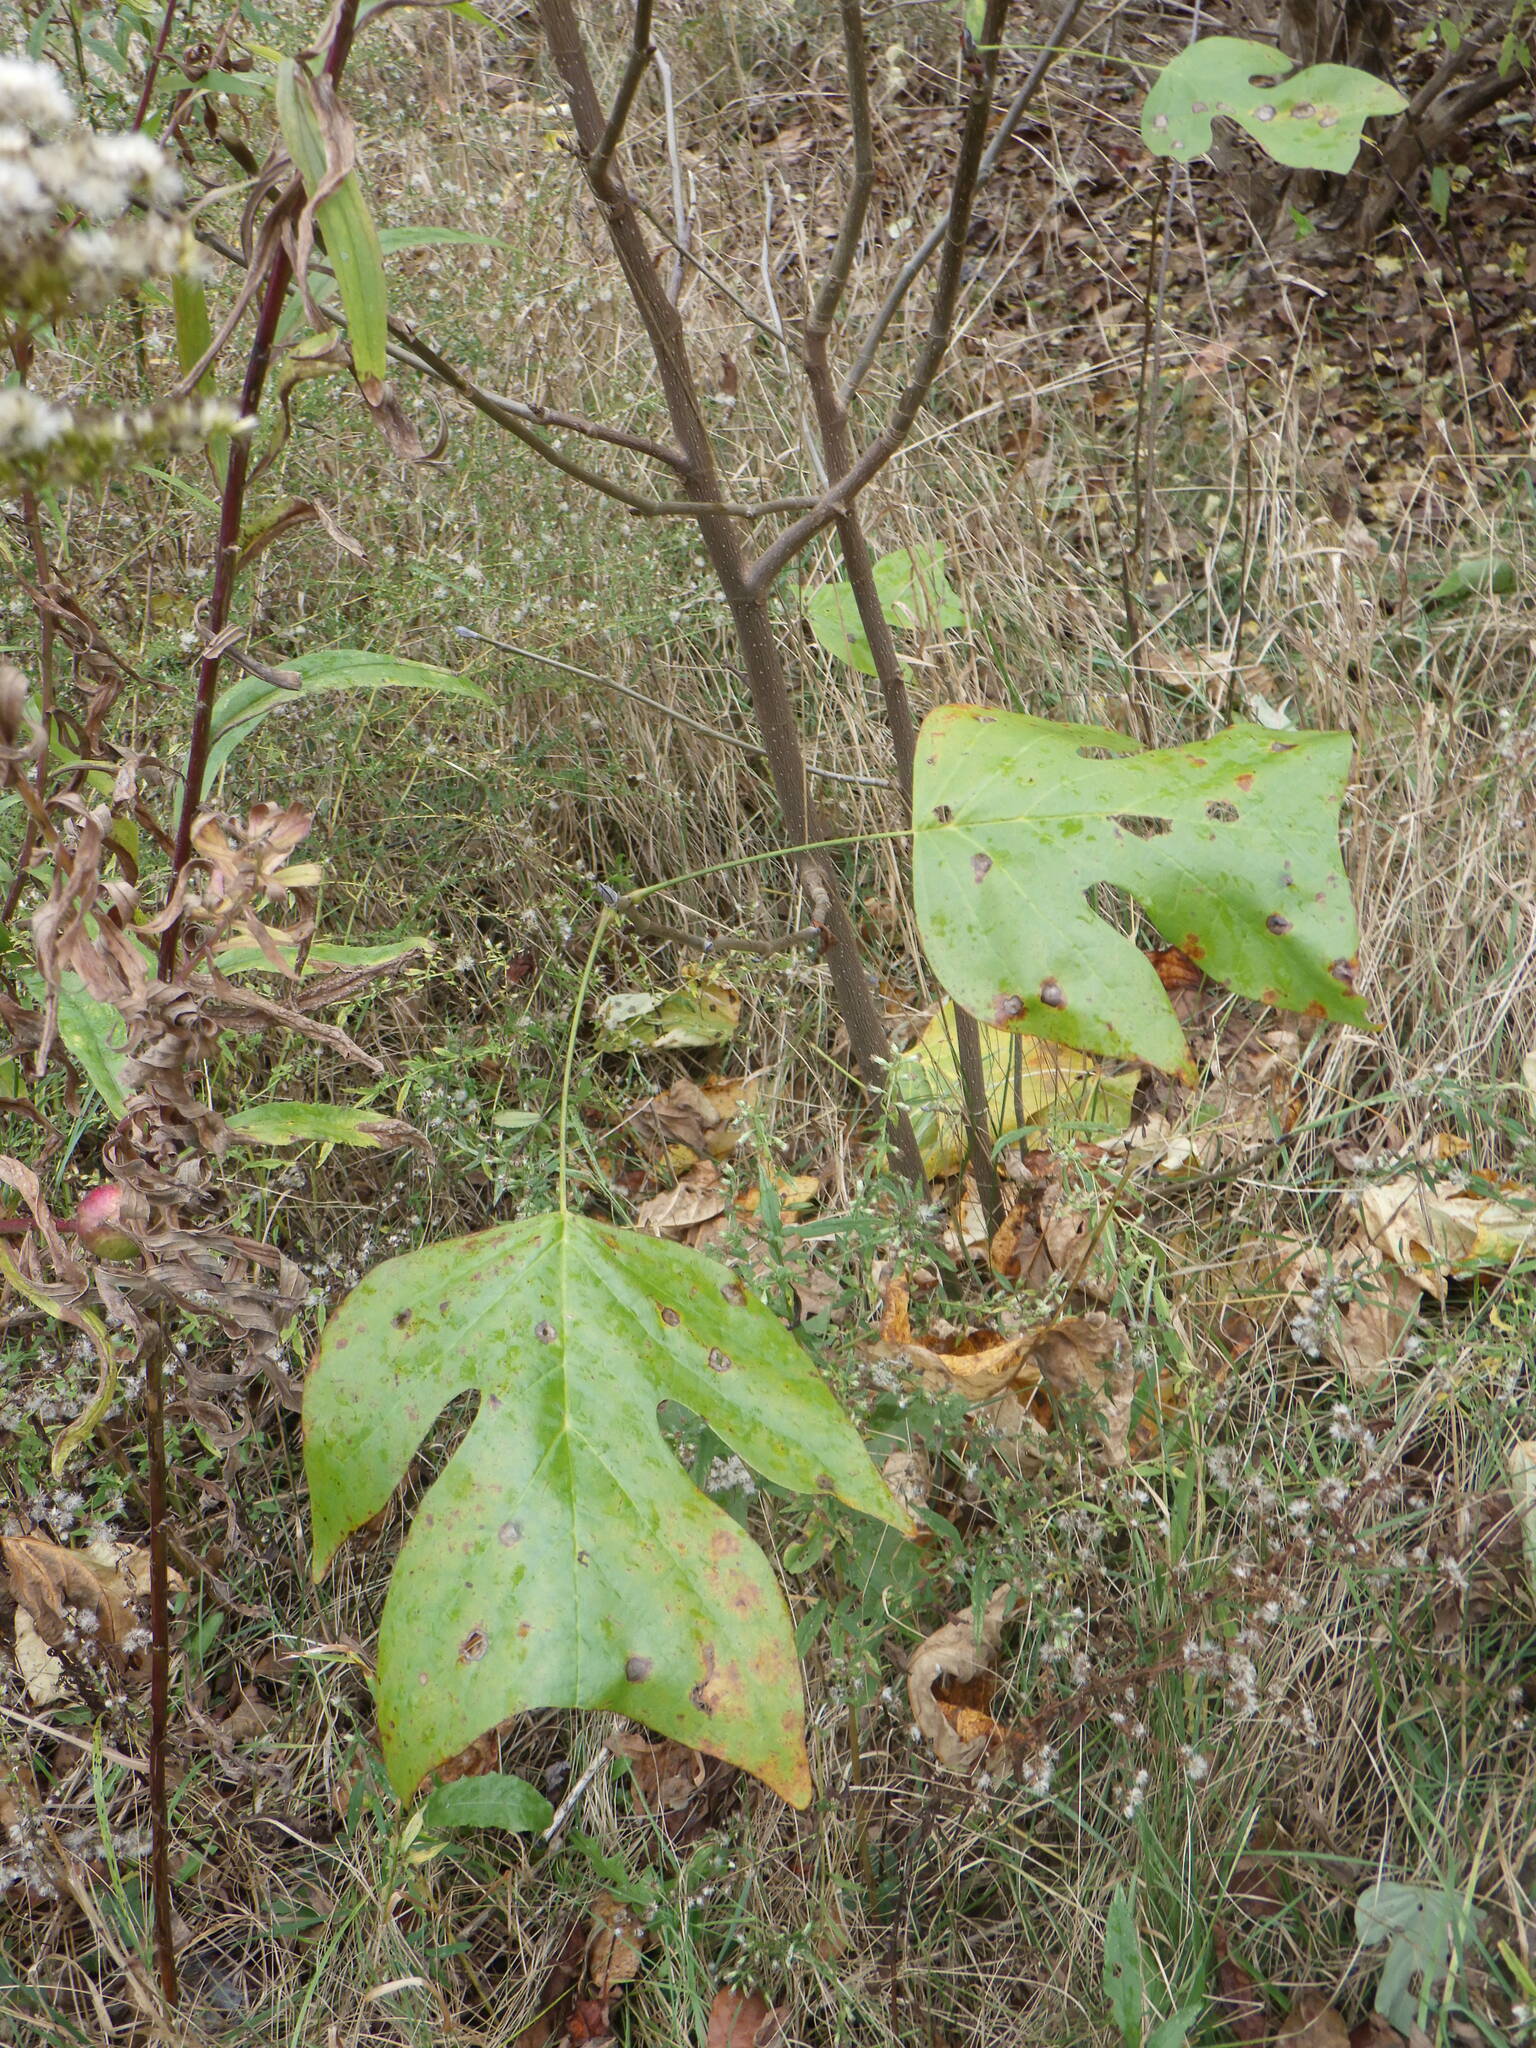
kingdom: Plantae
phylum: Tracheophyta
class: Magnoliopsida
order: Magnoliales
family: Magnoliaceae
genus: Liriodendron
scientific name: Liriodendron tulipifera
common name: Tulip tree
